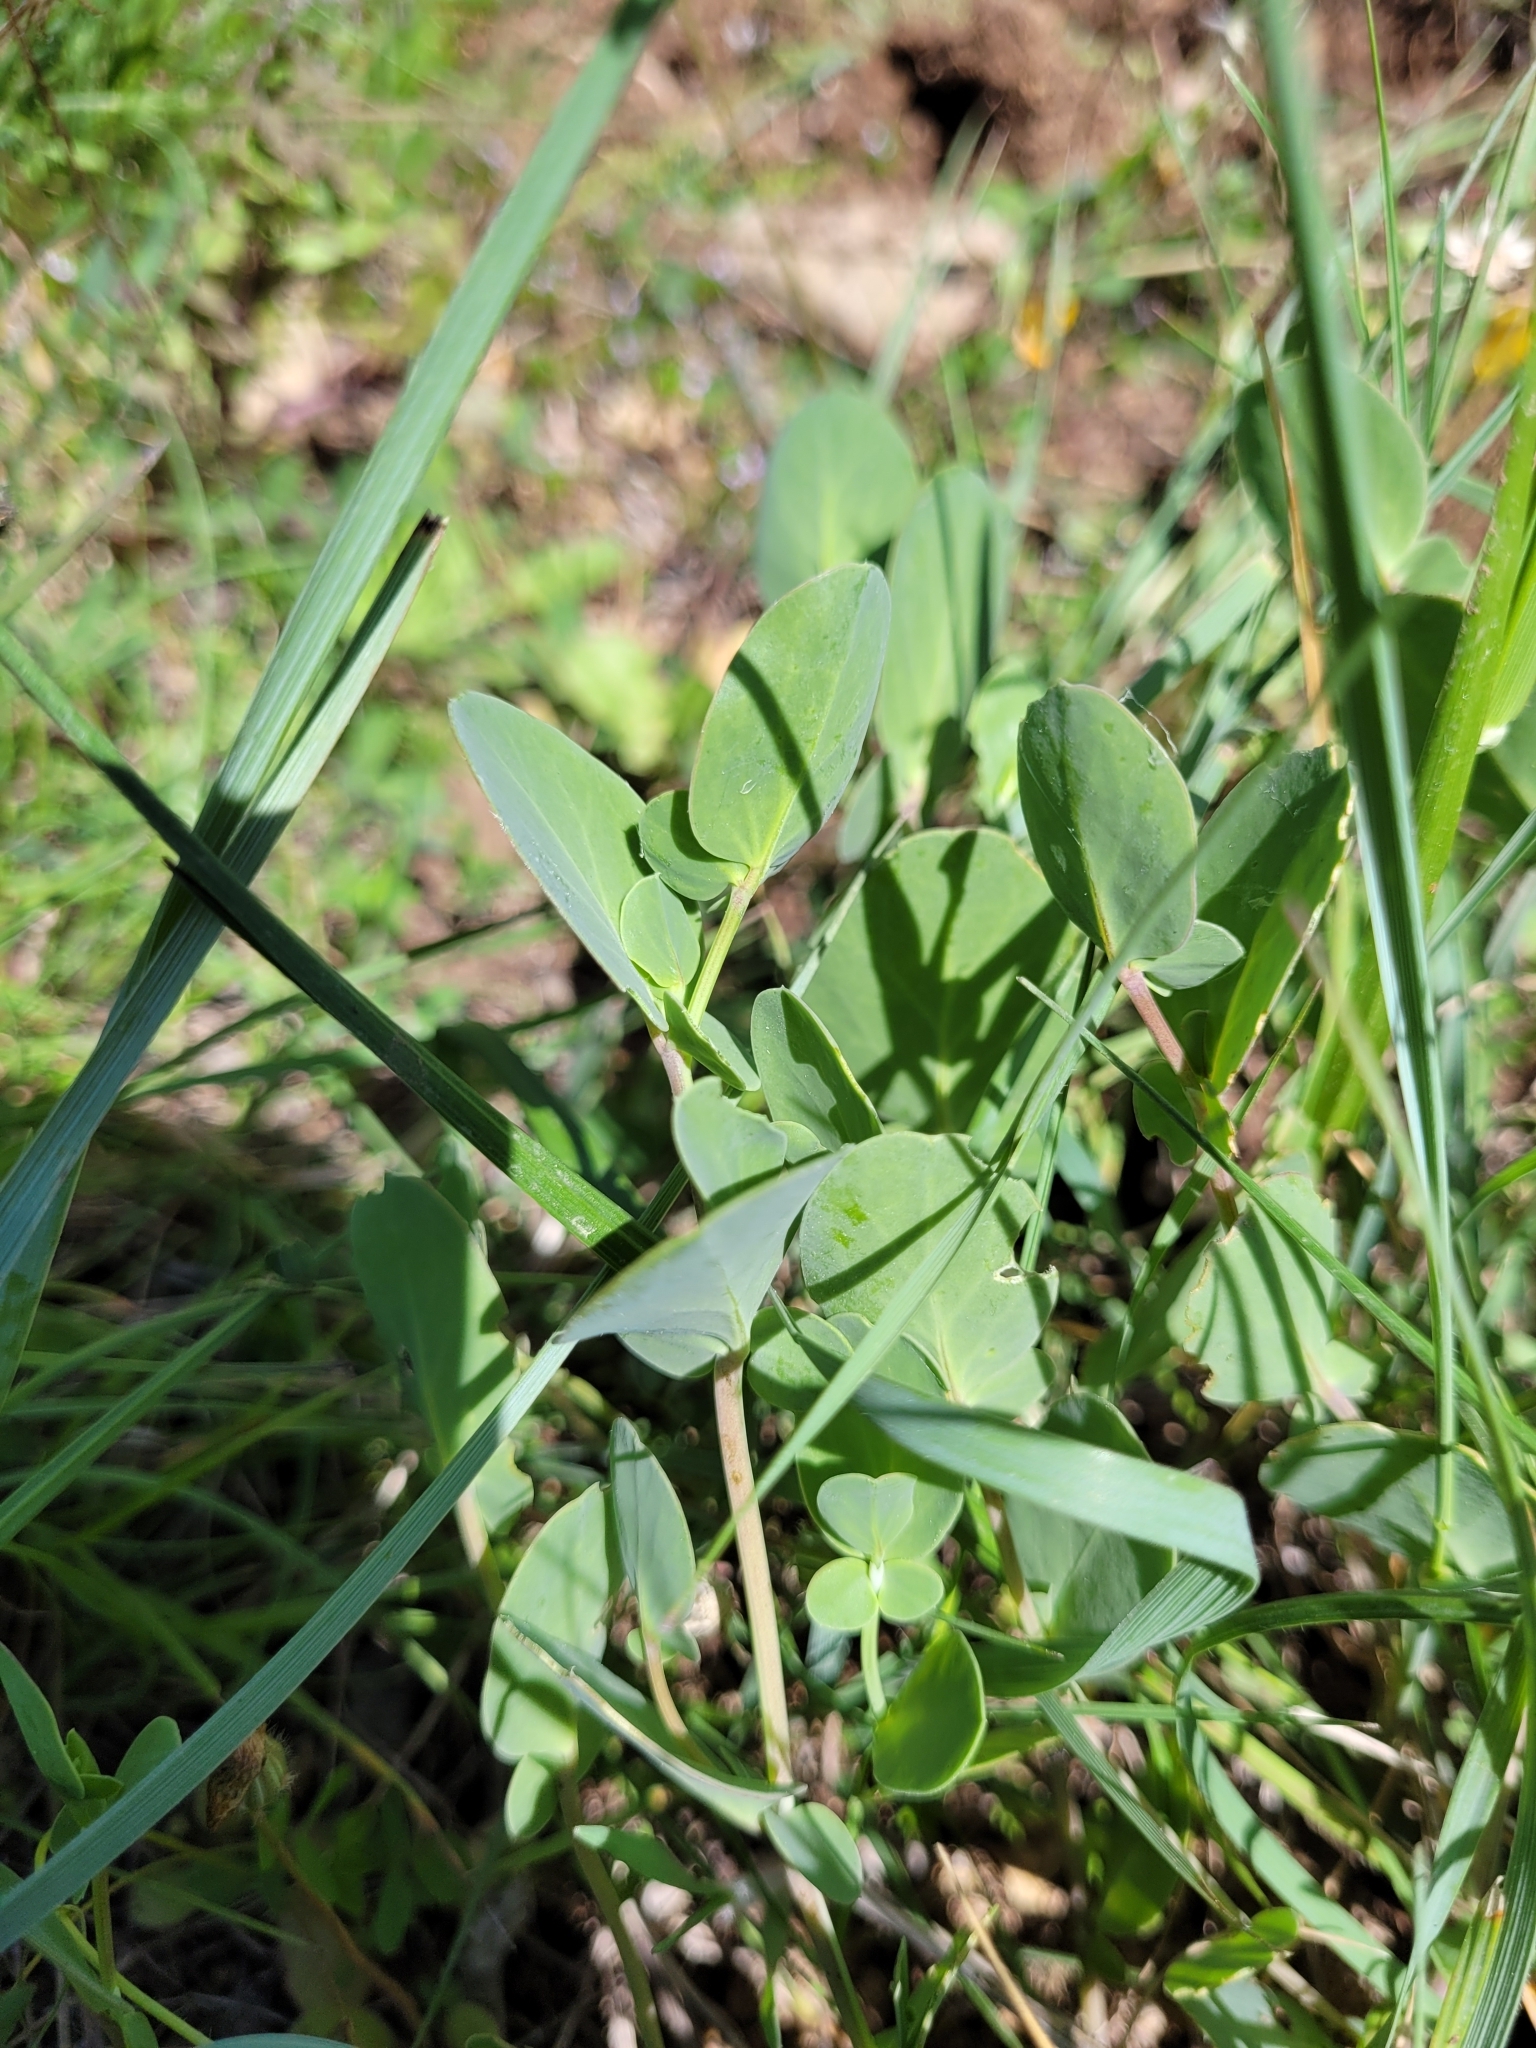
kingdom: Plantae
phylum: Tracheophyta
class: Magnoliopsida
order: Fabales
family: Fabaceae
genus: Coronilla
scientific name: Coronilla scorpioides
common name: Annual scorpion-vetch
